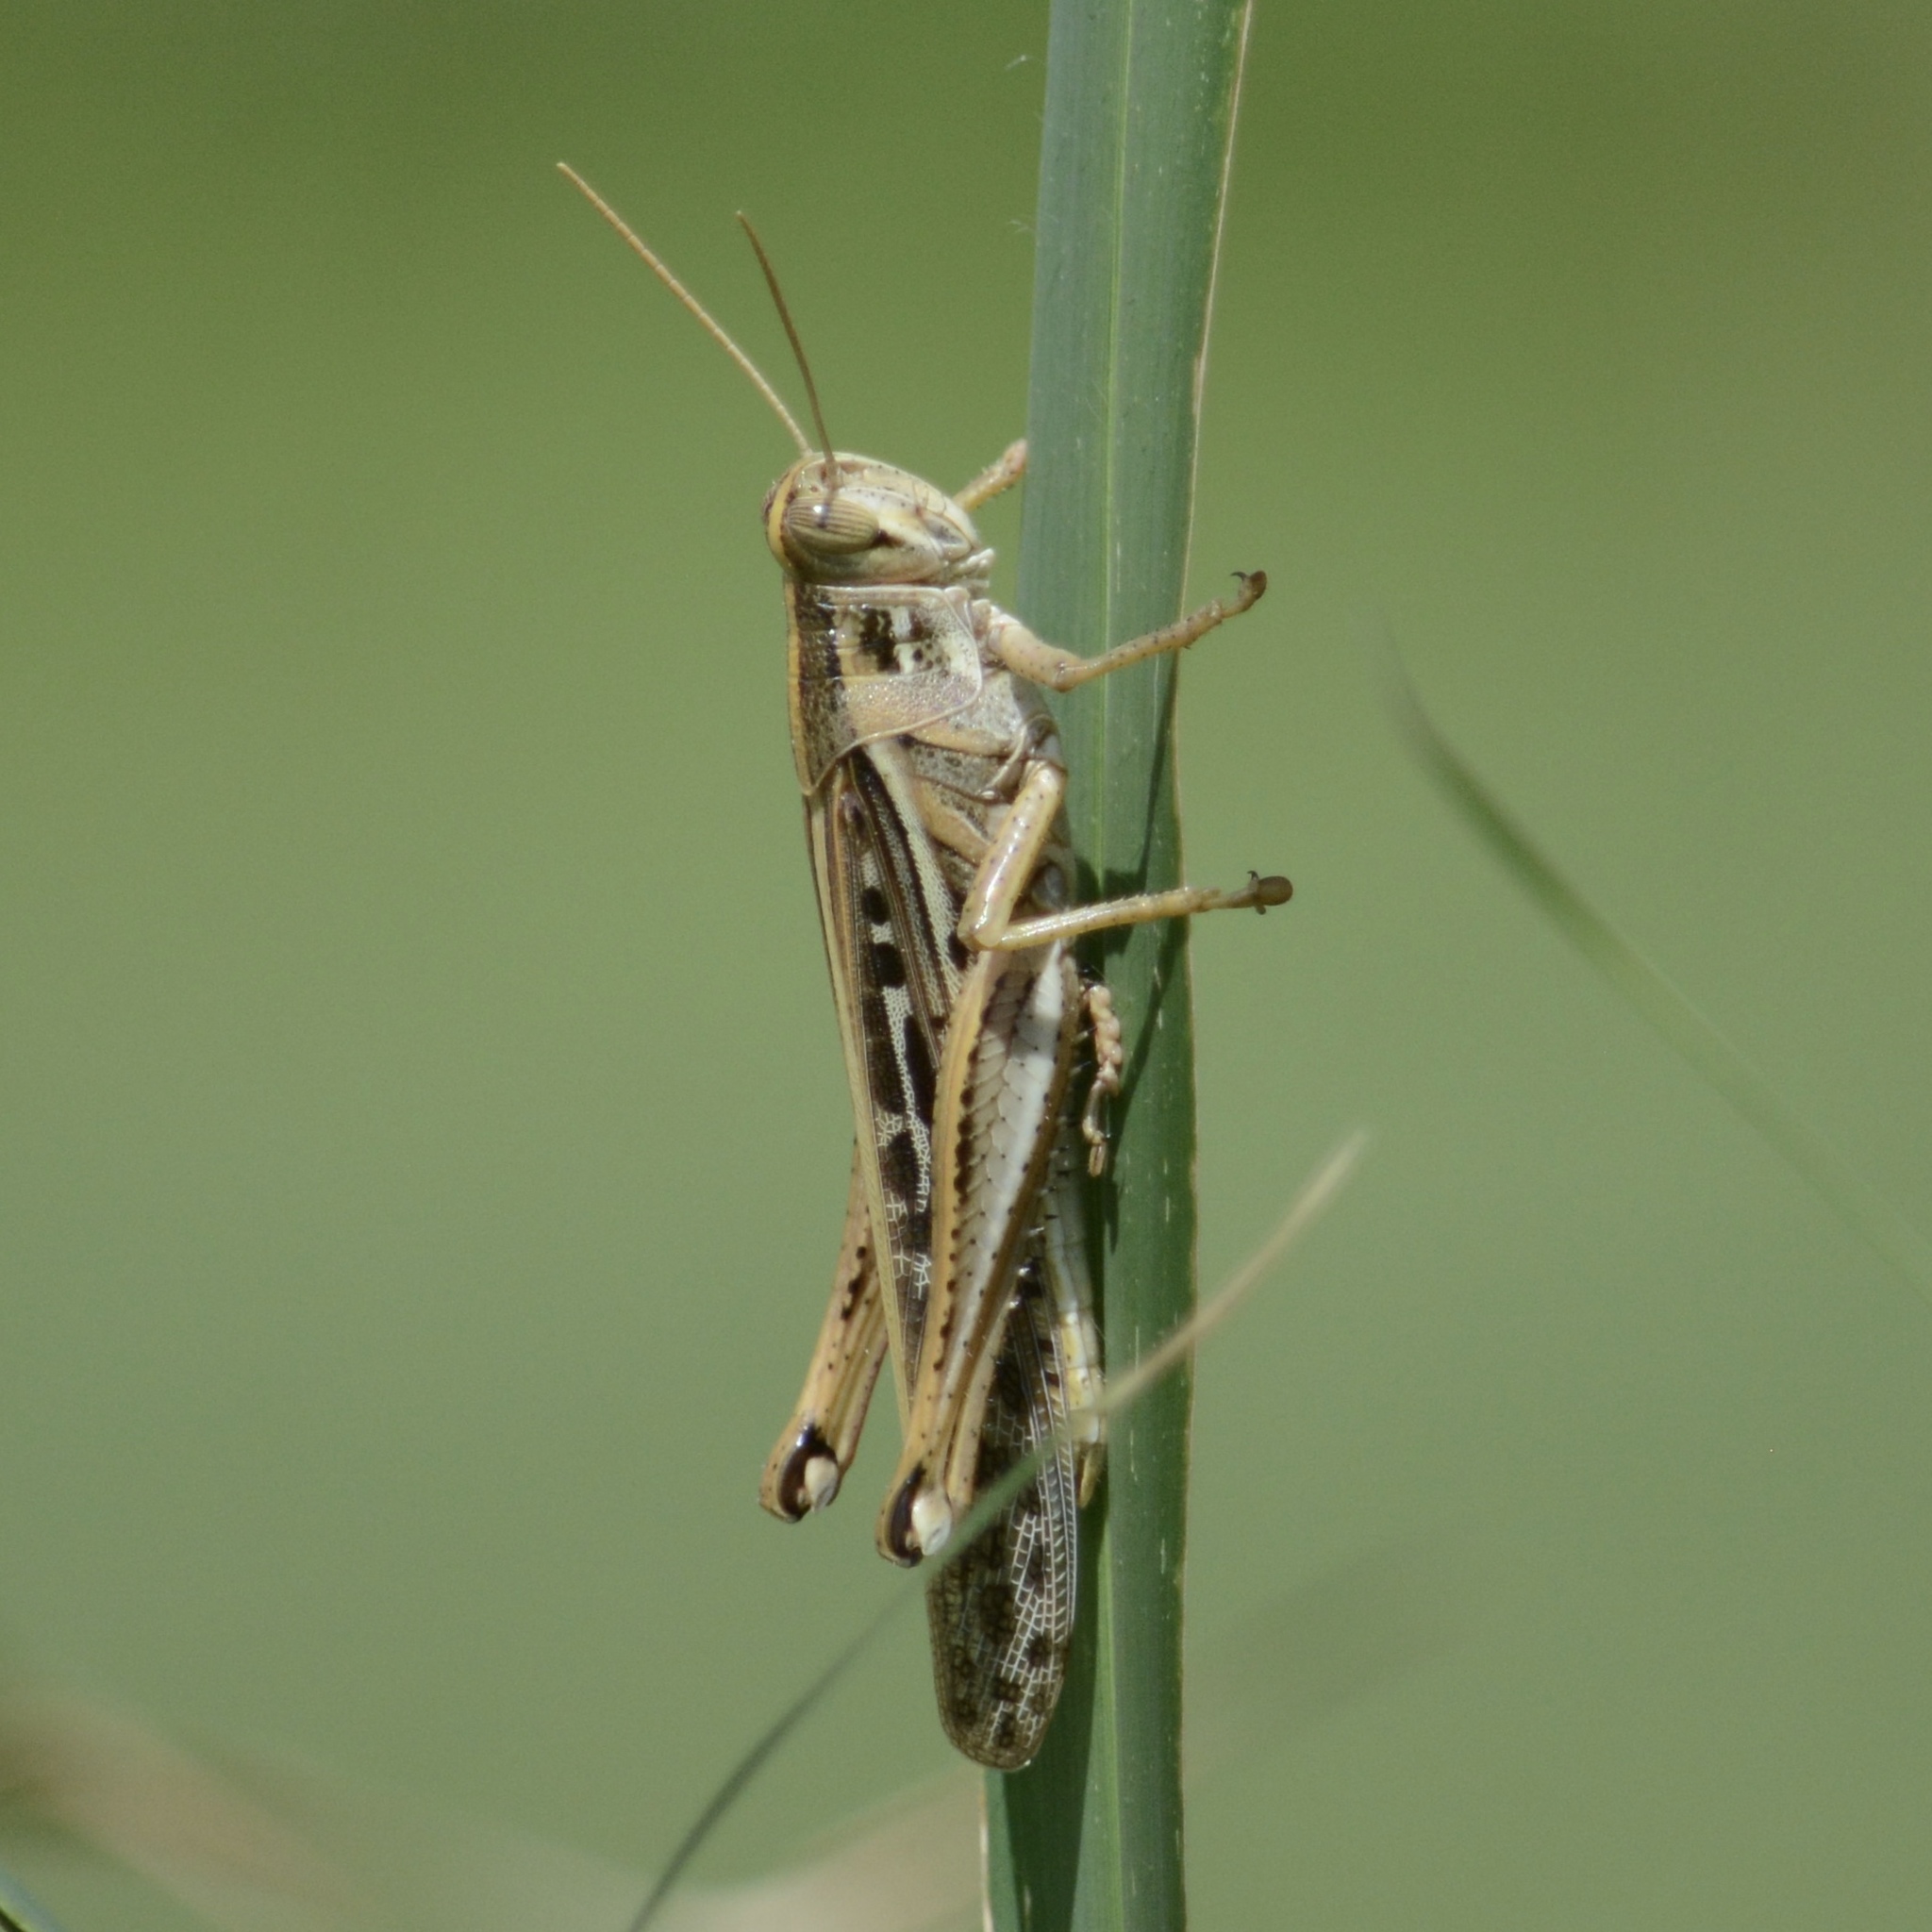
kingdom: Animalia
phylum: Arthropoda
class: Insecta
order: Orthoptera
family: Acrididae
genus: Schistocerca
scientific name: Schistocerca americana
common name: American bird locust
